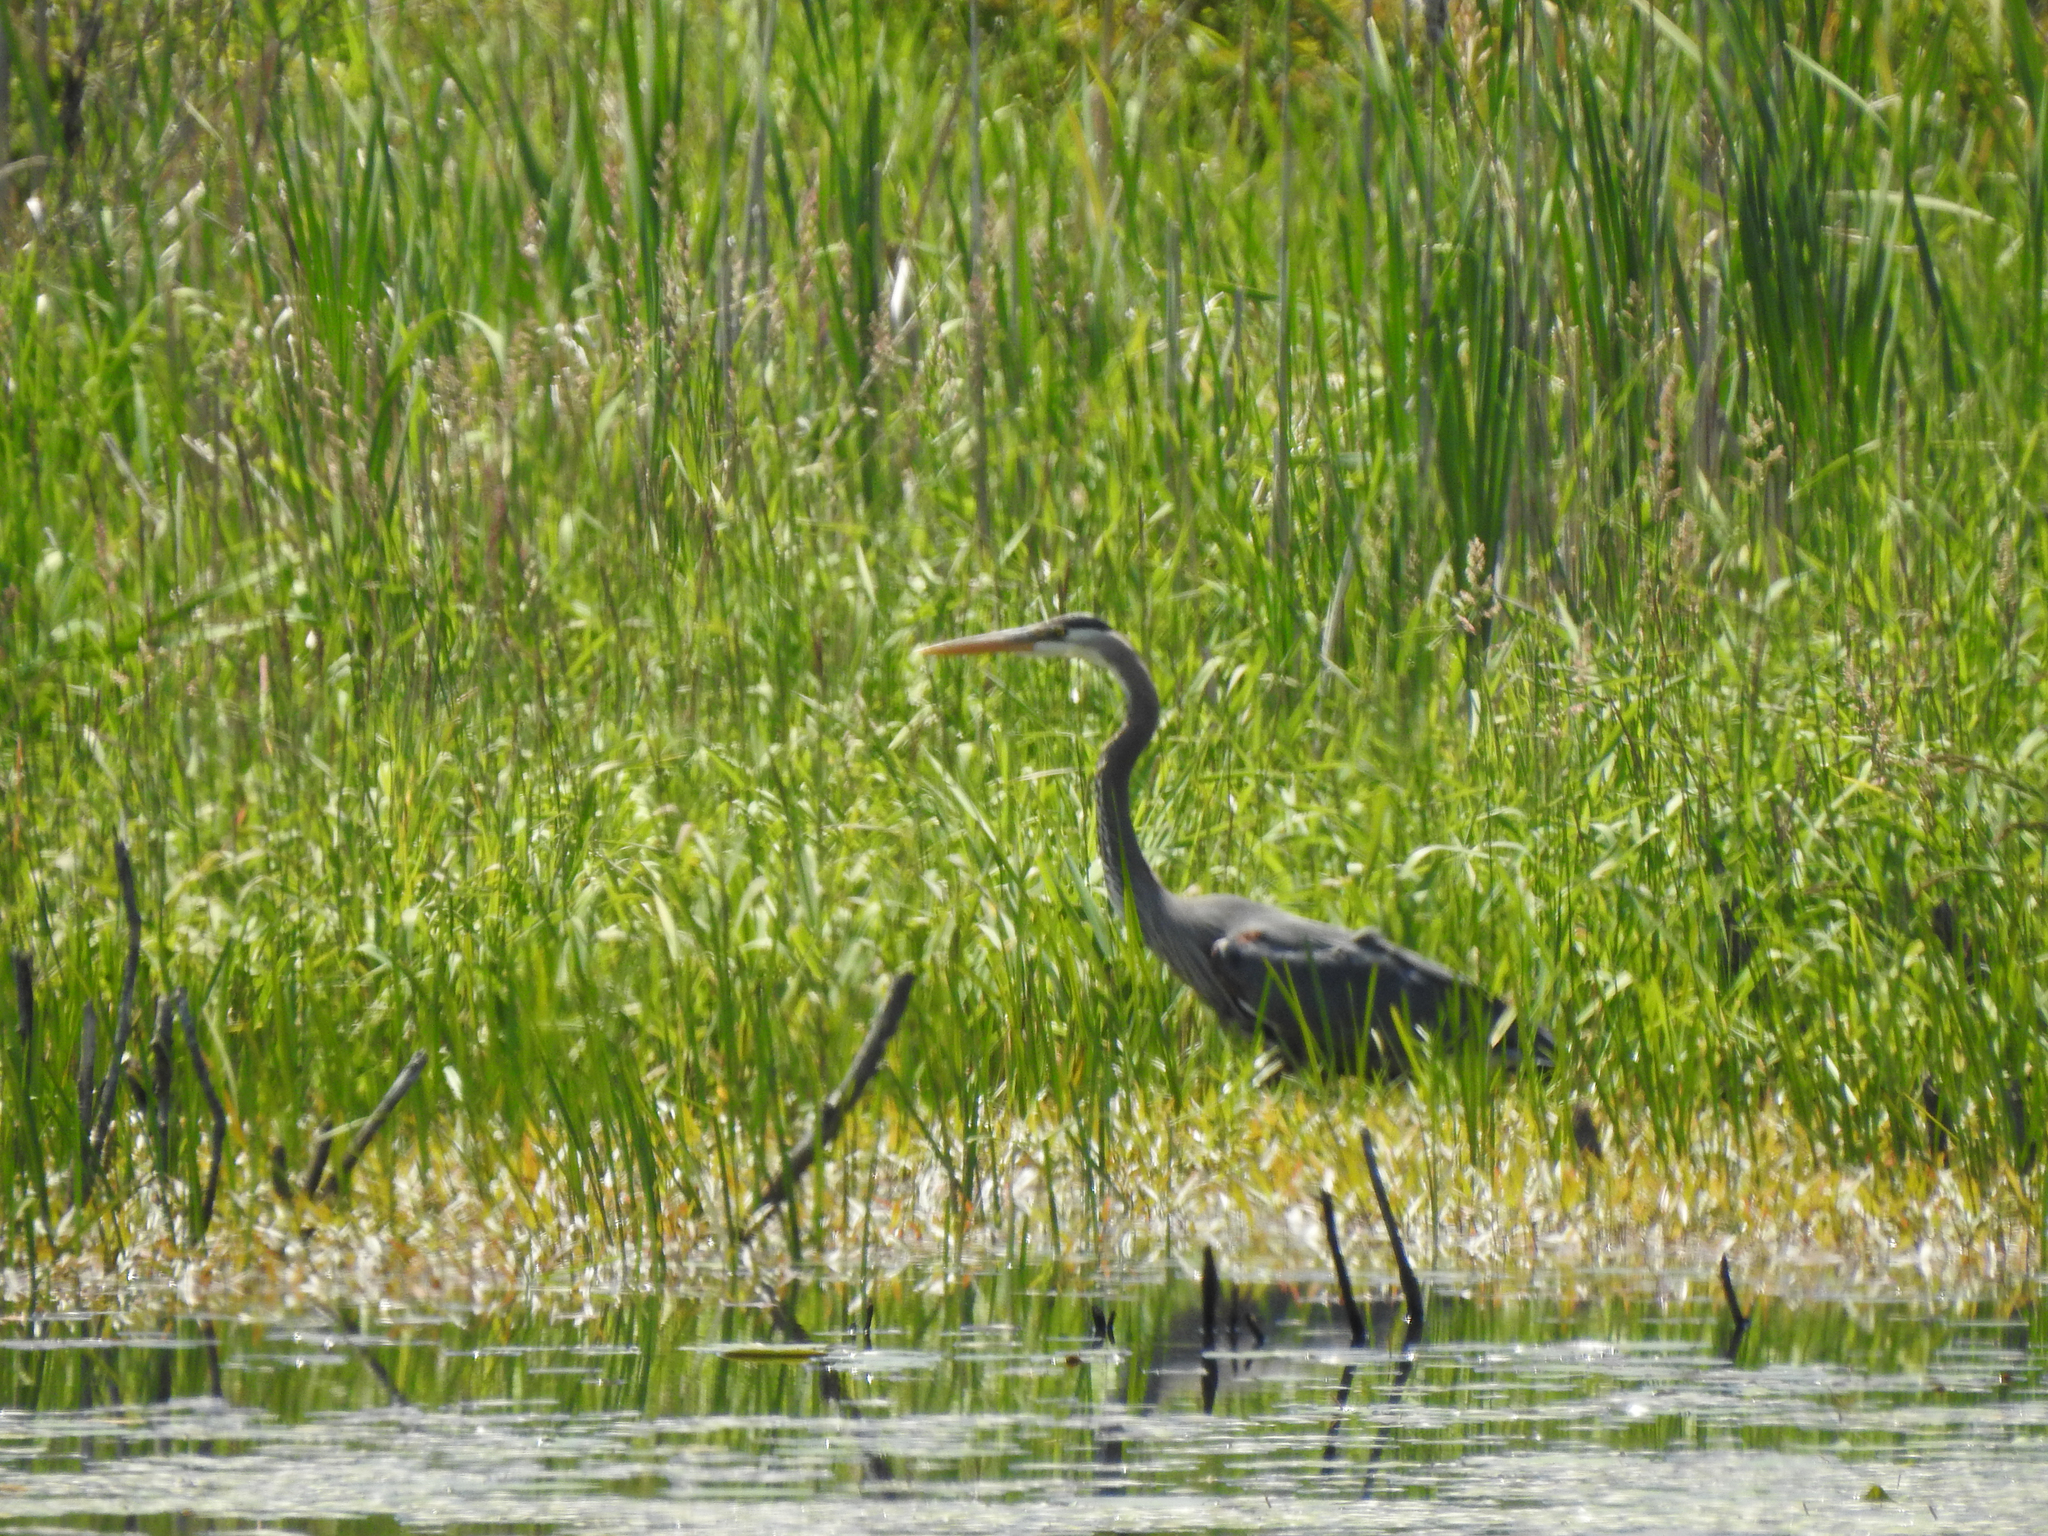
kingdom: Animalia
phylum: Chordata
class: Aves
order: Pelecaniformes
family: Ardeidae
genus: Ardea
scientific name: Ardea herodias
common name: Great blue heron
